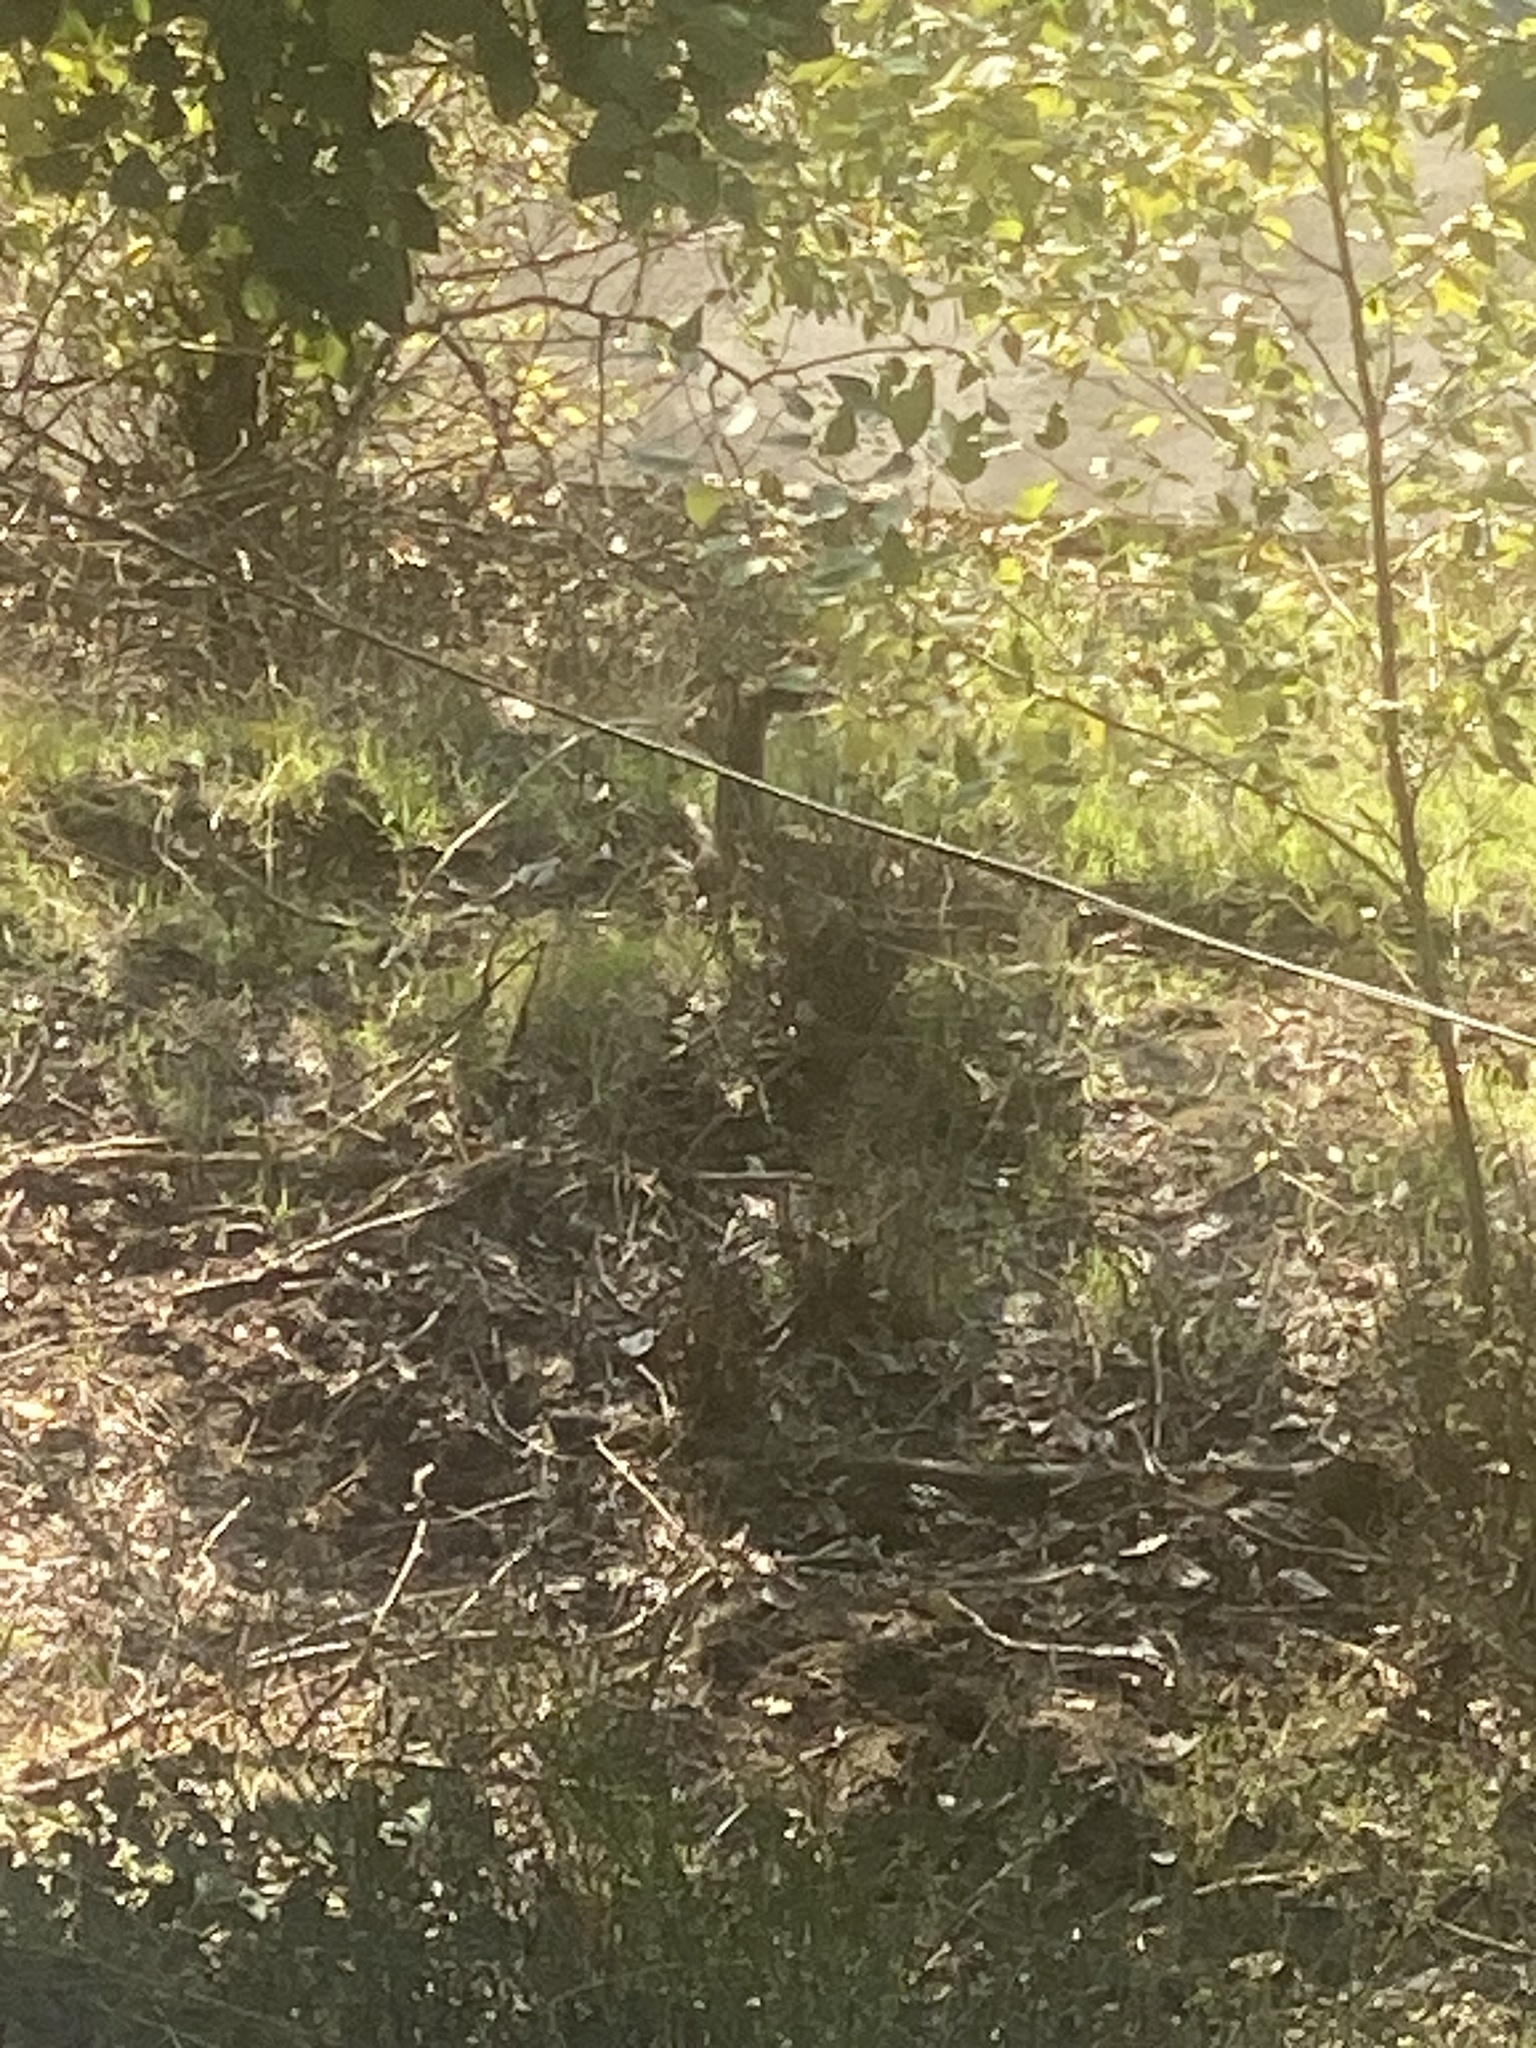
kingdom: Animalia
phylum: Chordata
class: Mammalia
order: Artiodactyla
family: Cervidae
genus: Odocoileus
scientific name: Odocoileus hemionus
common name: Mule deer
